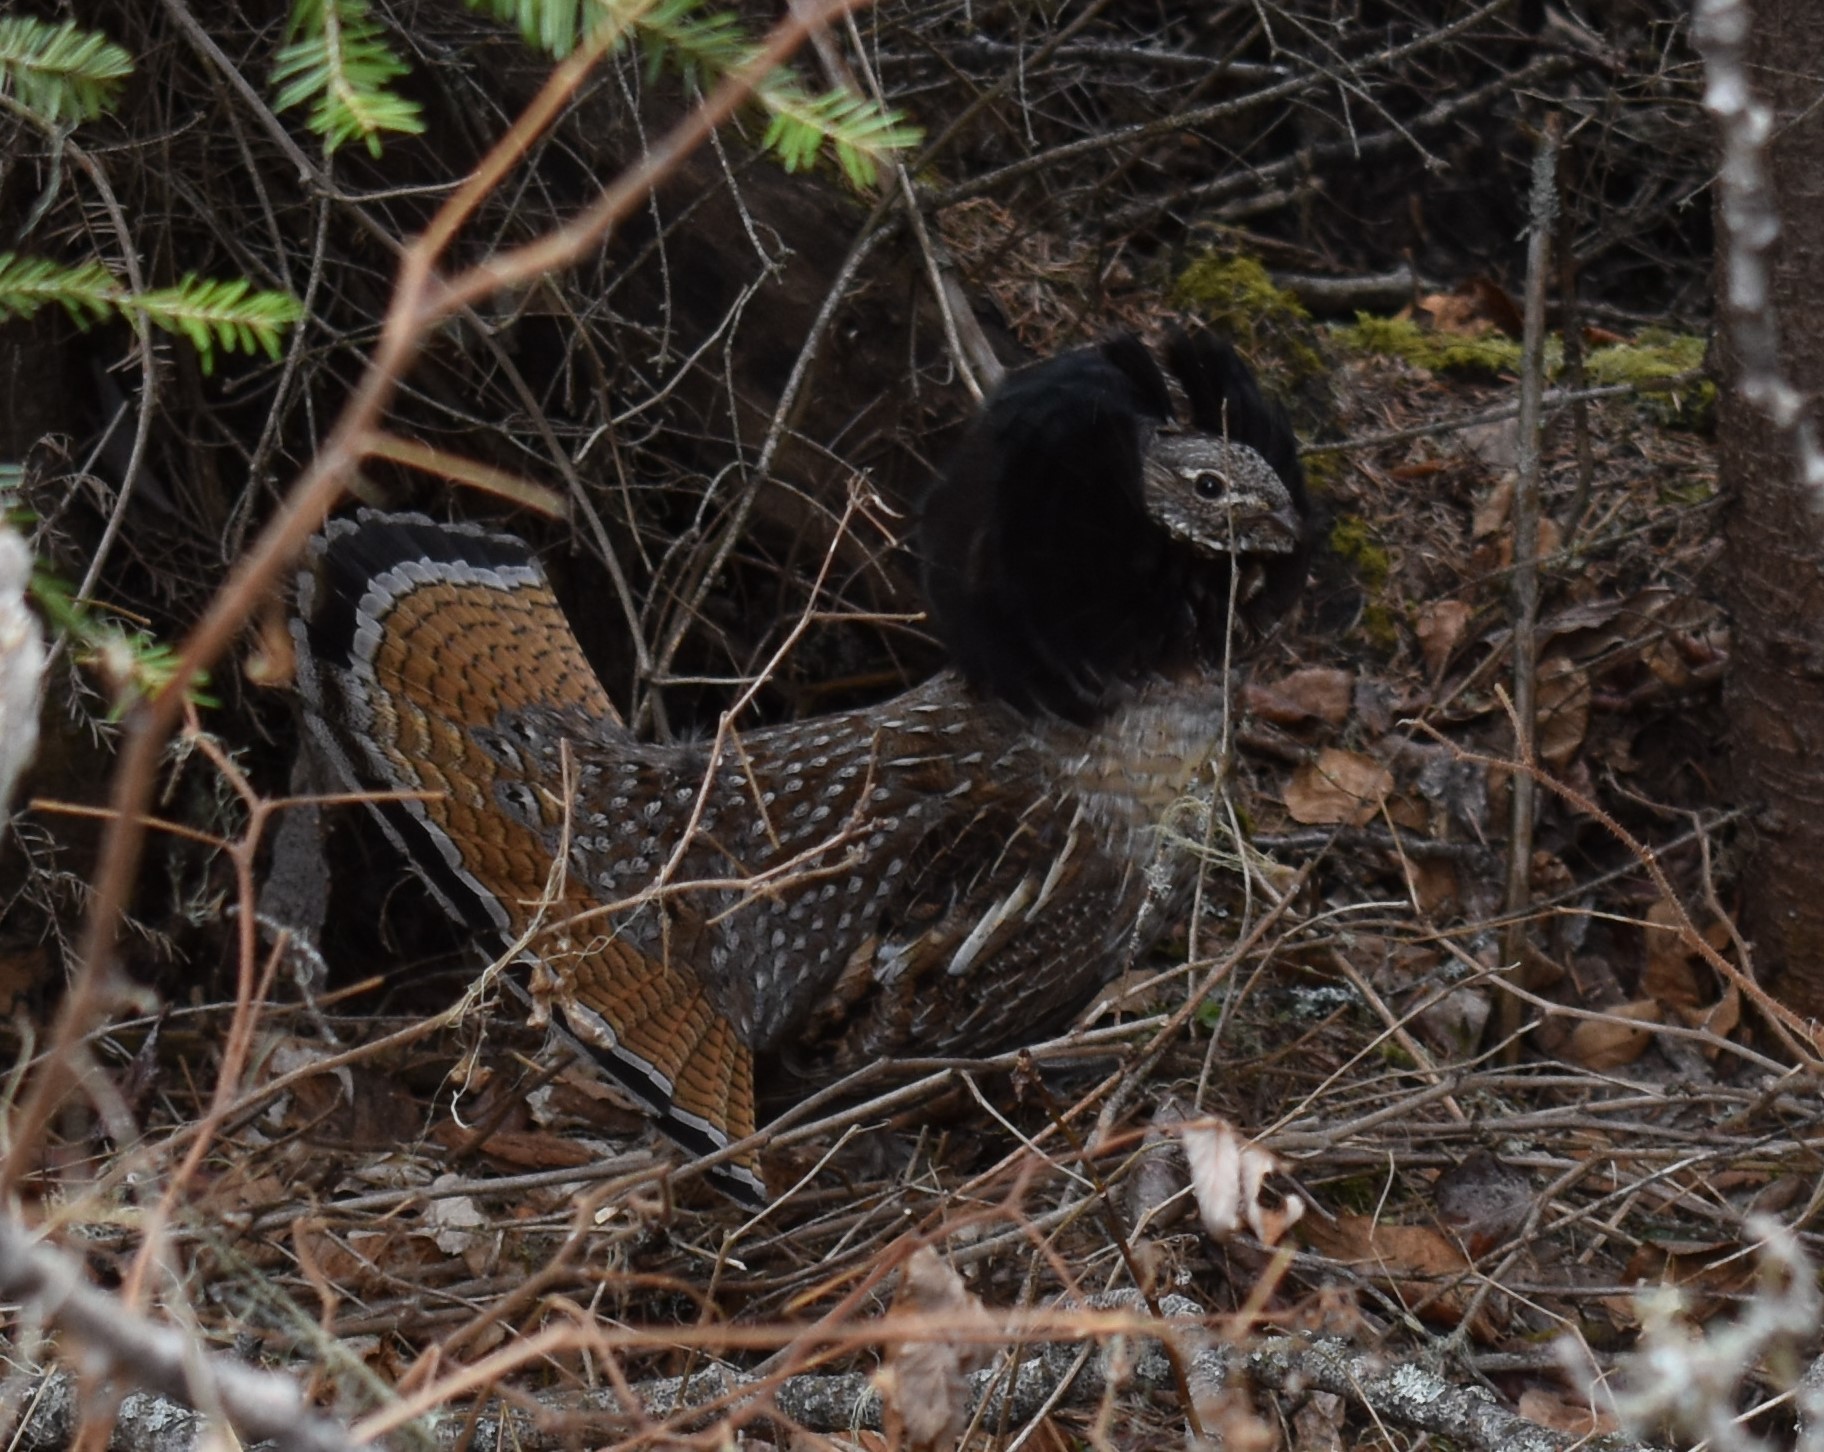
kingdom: Animalia
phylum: Chordata
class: Aves
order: Galliformes
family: Phasianidae
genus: Bonasa
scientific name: Bonasa umbellus
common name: Ruffed grouse
